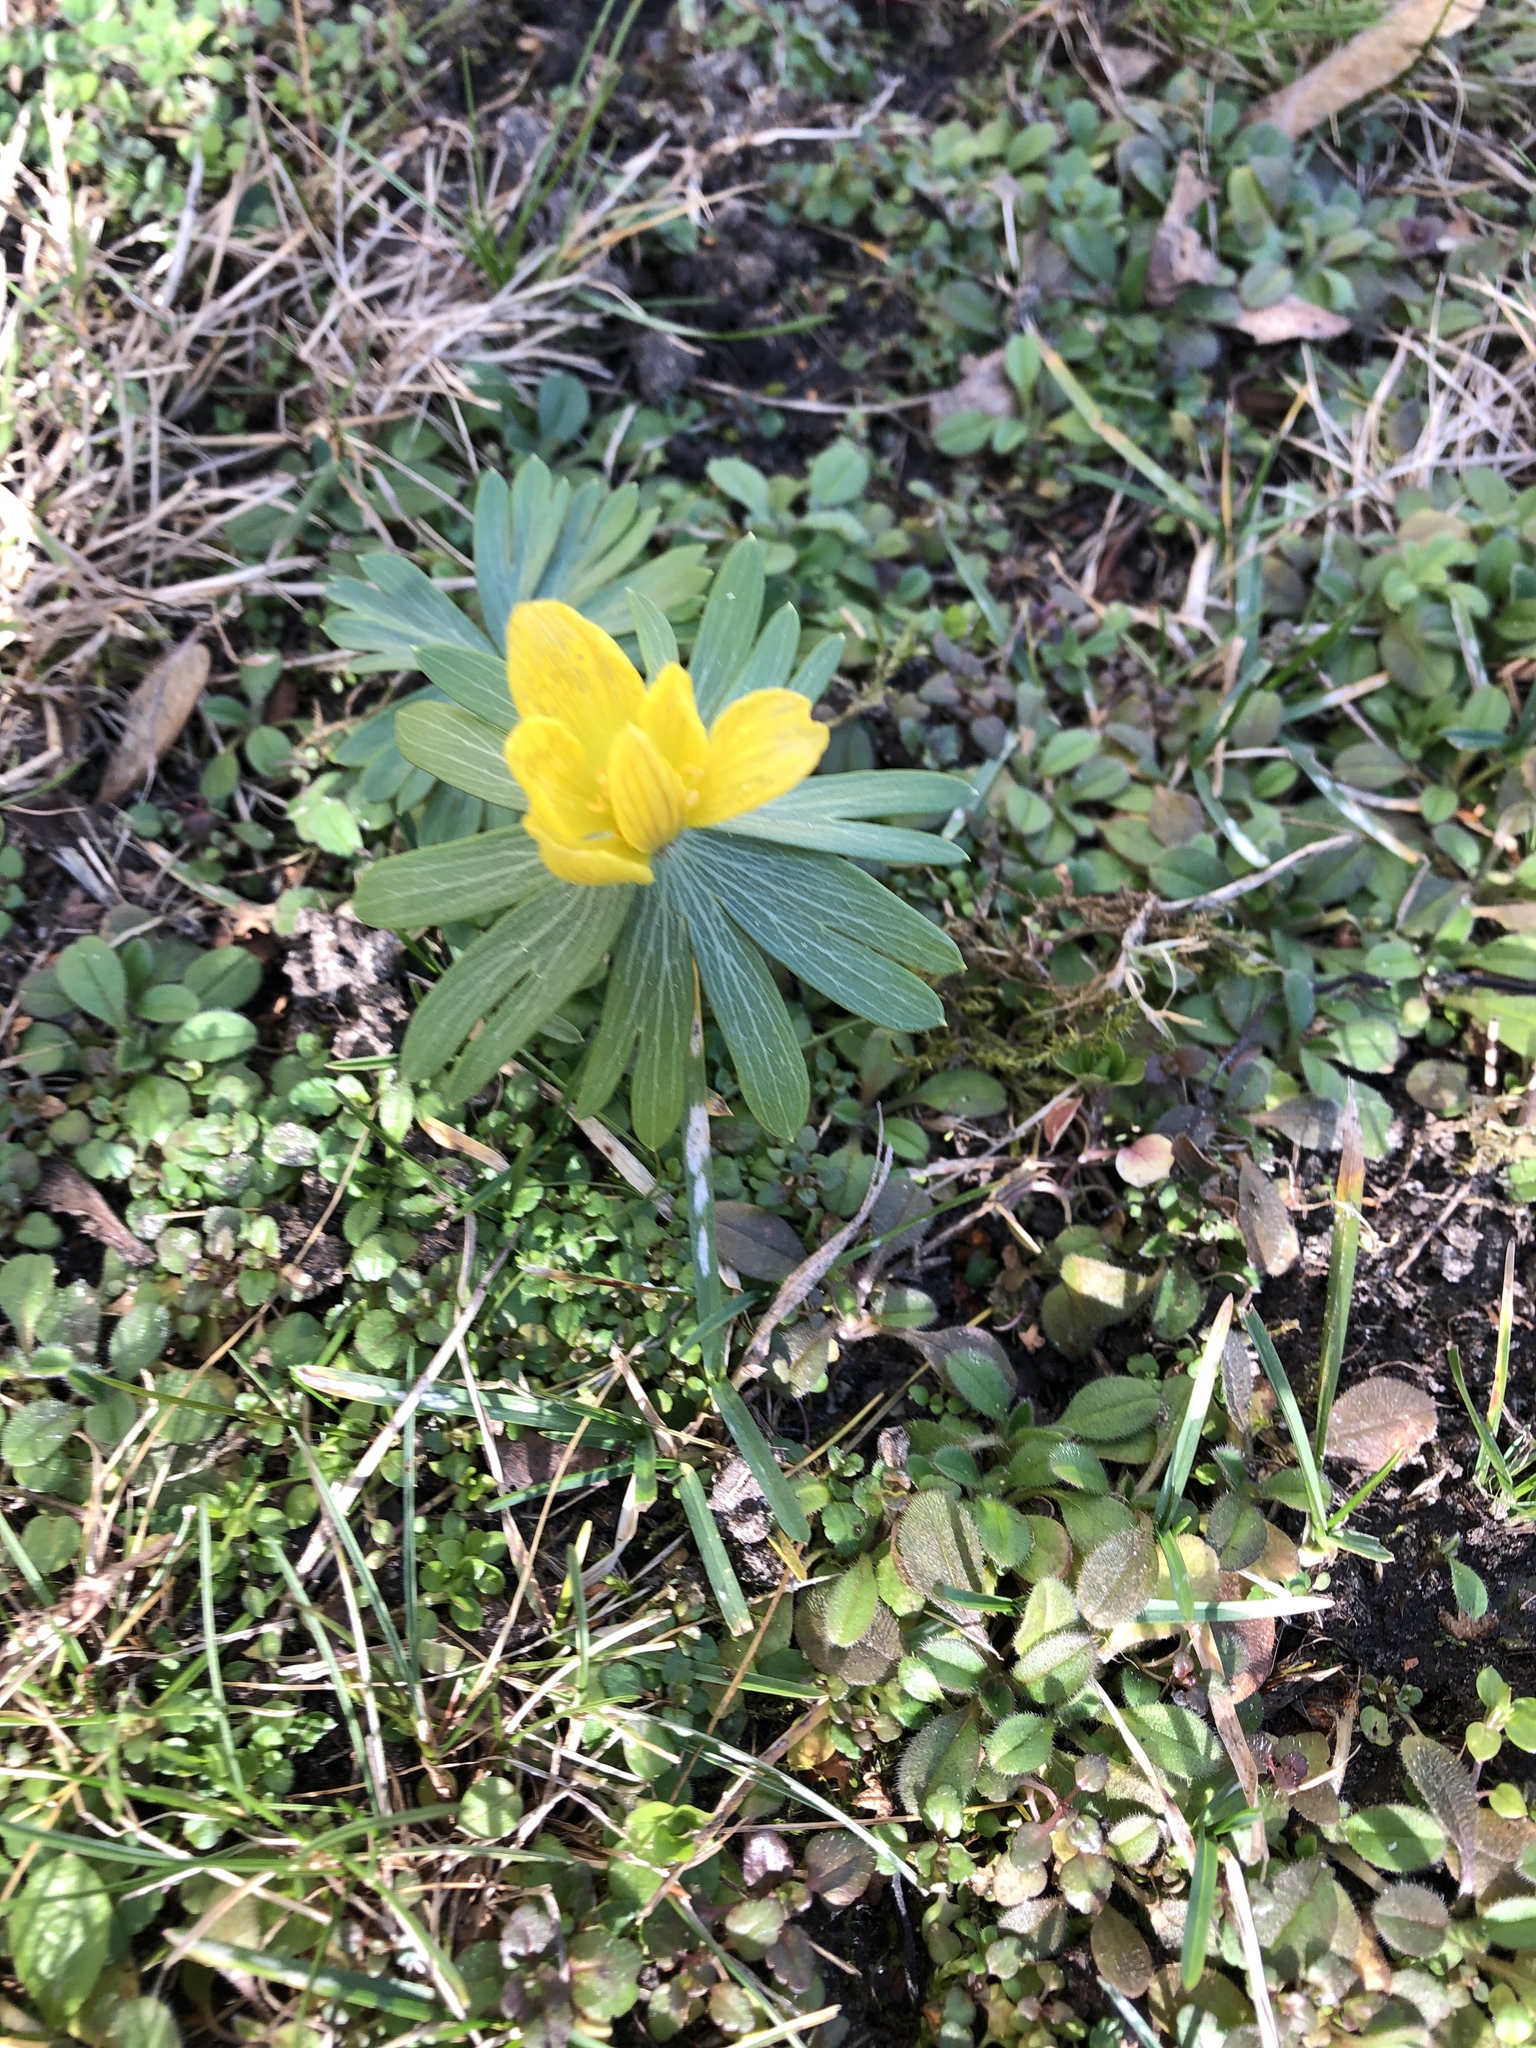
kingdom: Plantae
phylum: Tracheophyta
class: Magnoliopsida
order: Ranunculales
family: Ranunculaceae
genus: Eranthis
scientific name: Eranthis hyemalis
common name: Winter aconite
